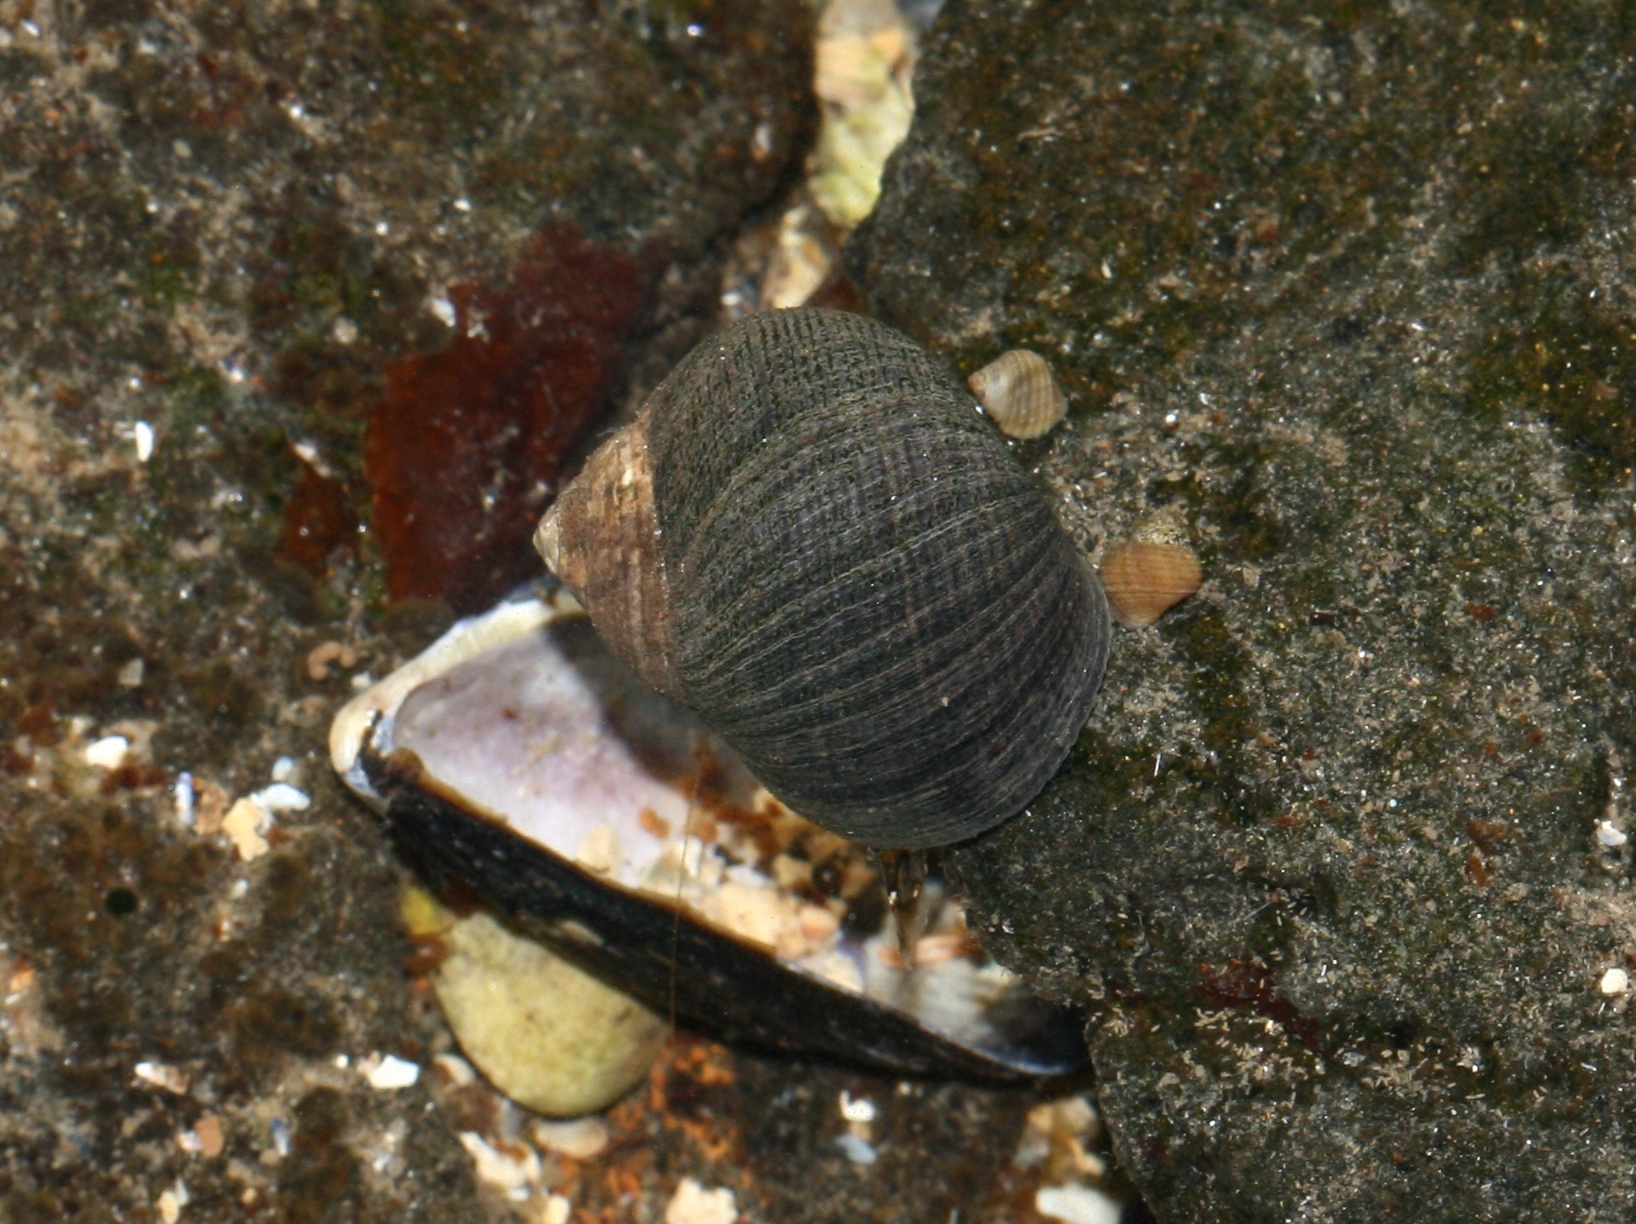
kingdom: Animalia
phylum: Mollusca
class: Gastropoda
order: Littorinimorpha
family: Littorinidae
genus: Littorina
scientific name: Littorina littorea
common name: Common periwinkle
